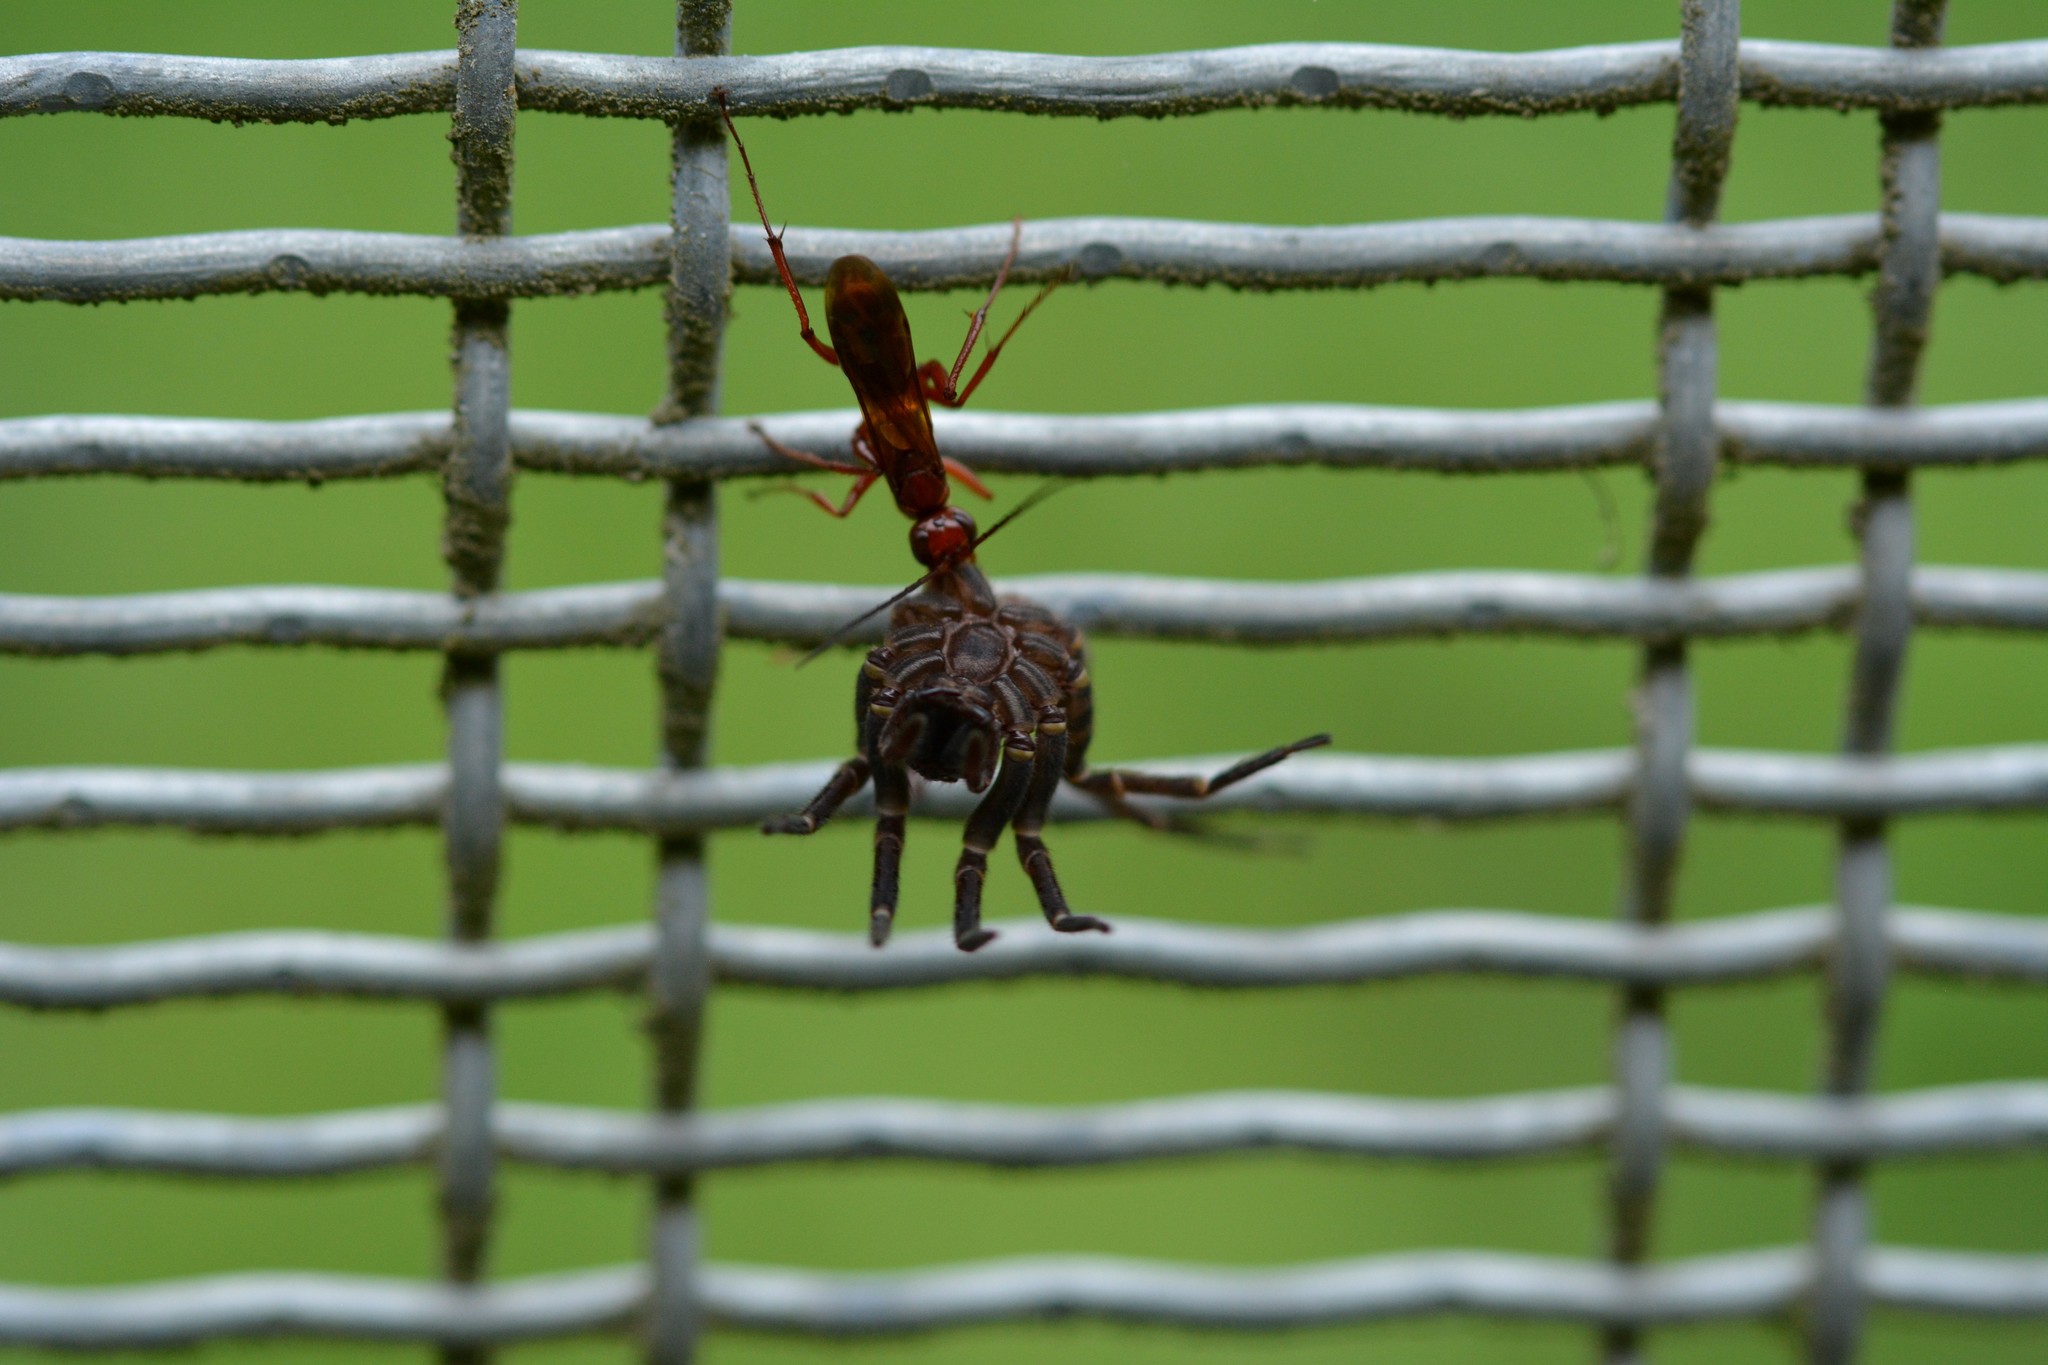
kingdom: Animalia
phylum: Arthropoda
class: Insecta
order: Hymenoptera
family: Pompilidae
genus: Sphictostethus
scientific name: Sphictostethus nitidus
